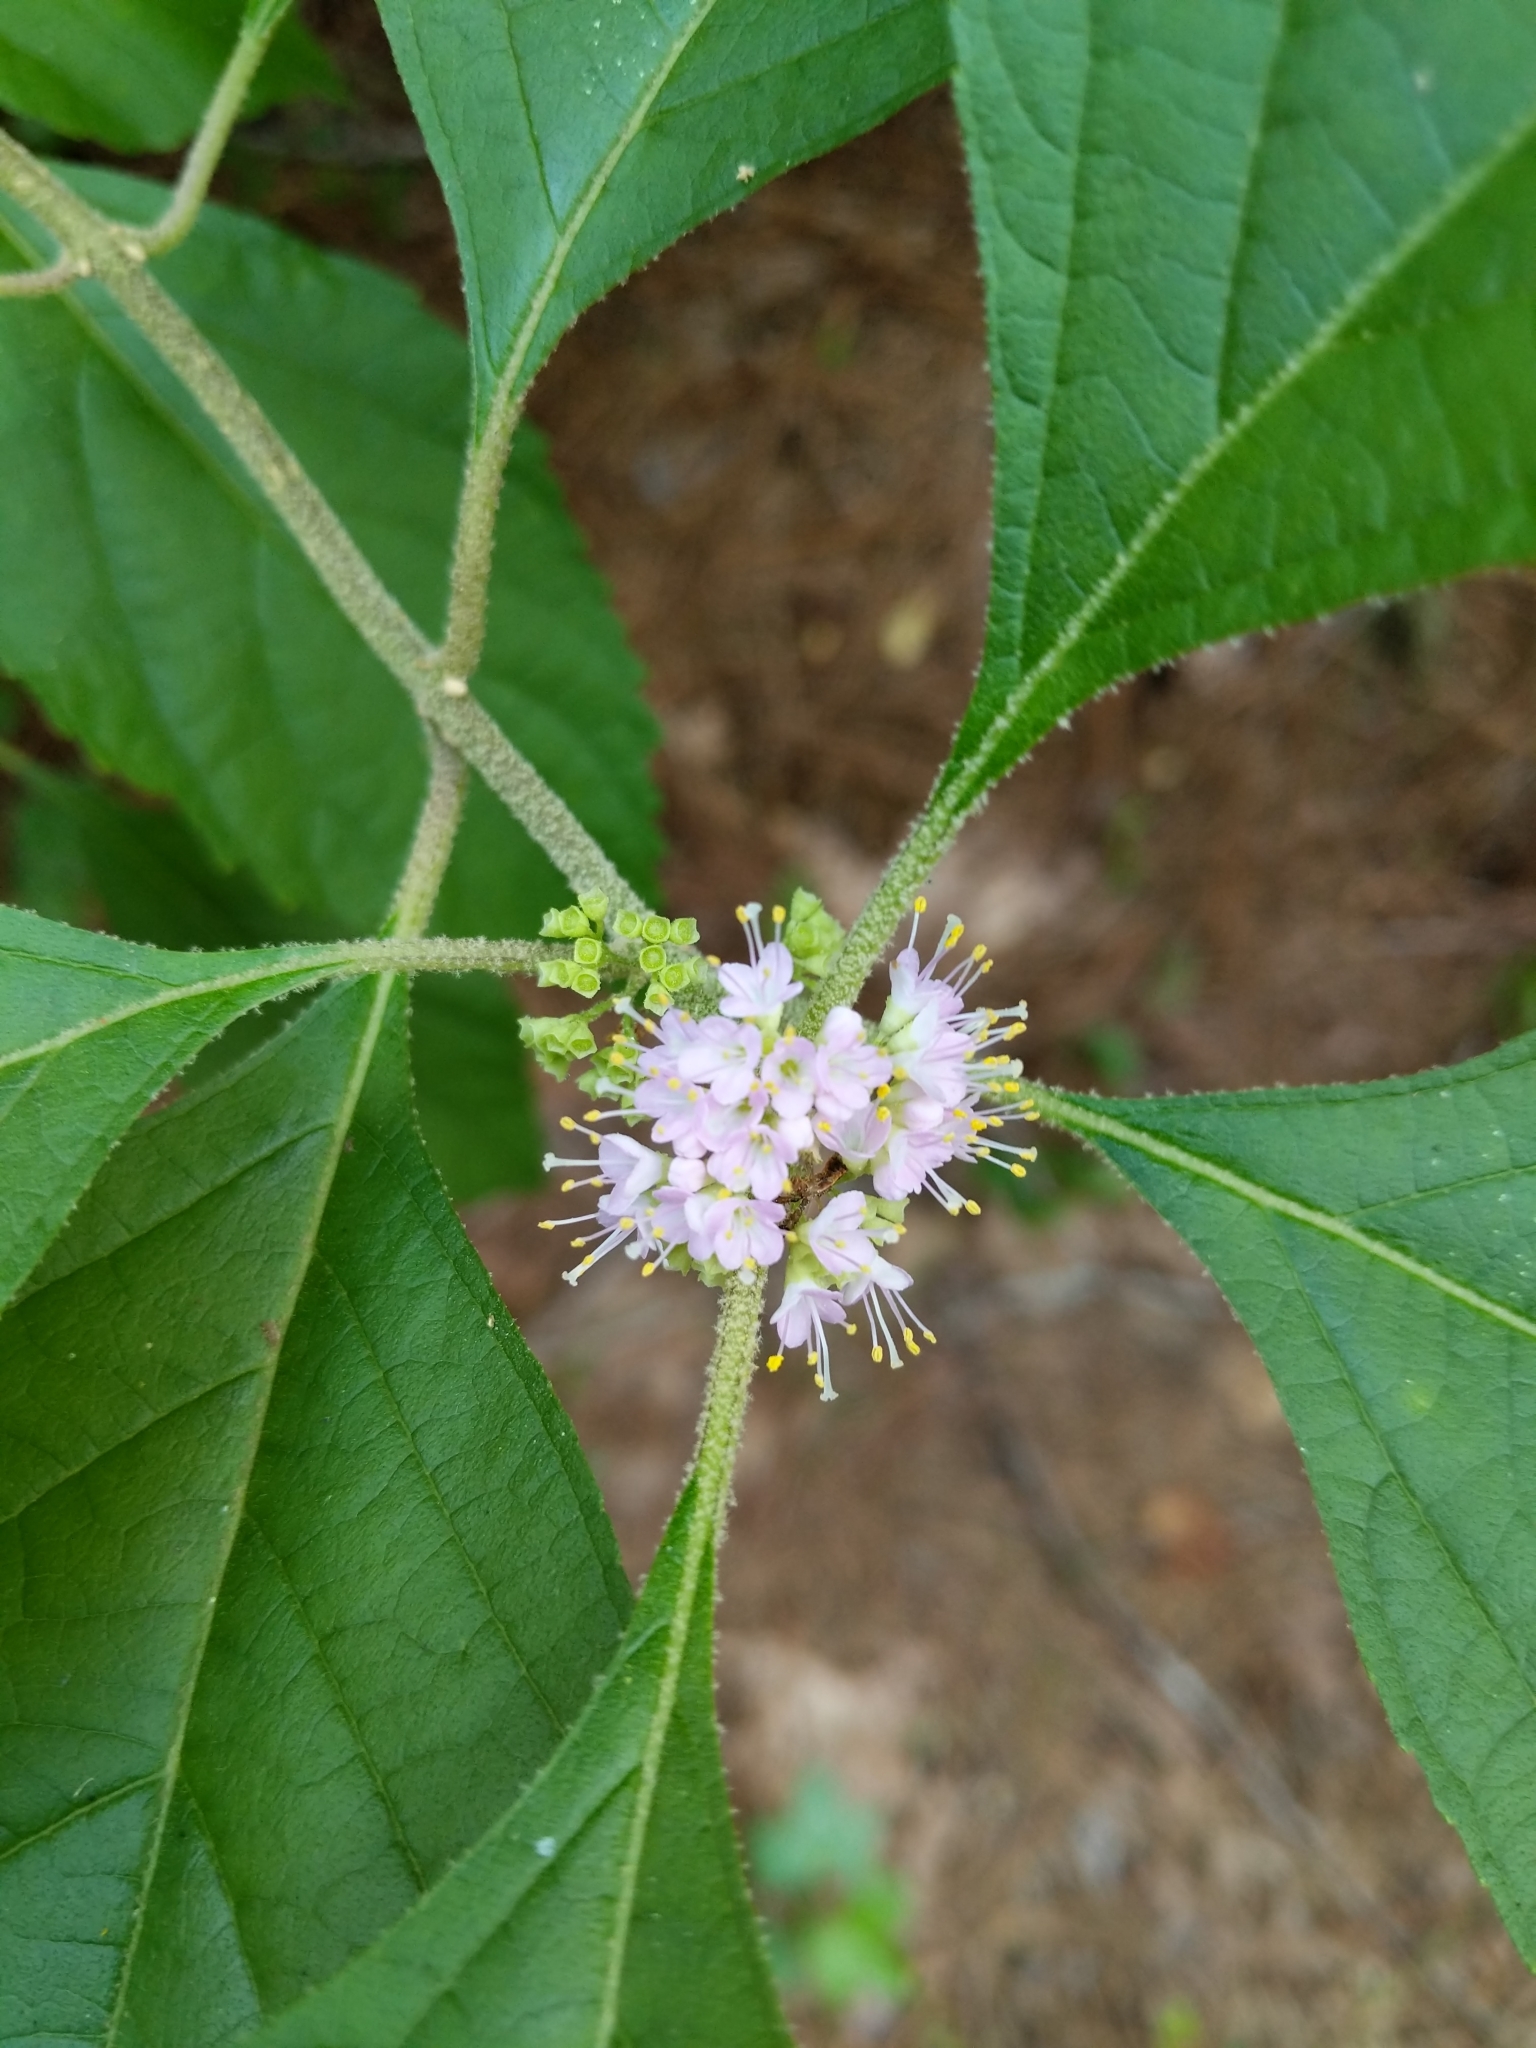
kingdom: Plantae
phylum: Tracheophyta
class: Magnoliopsida
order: Lamiales
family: Lamiaceae
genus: Callicarpa
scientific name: Callicarpa americana
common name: American beautyberry
